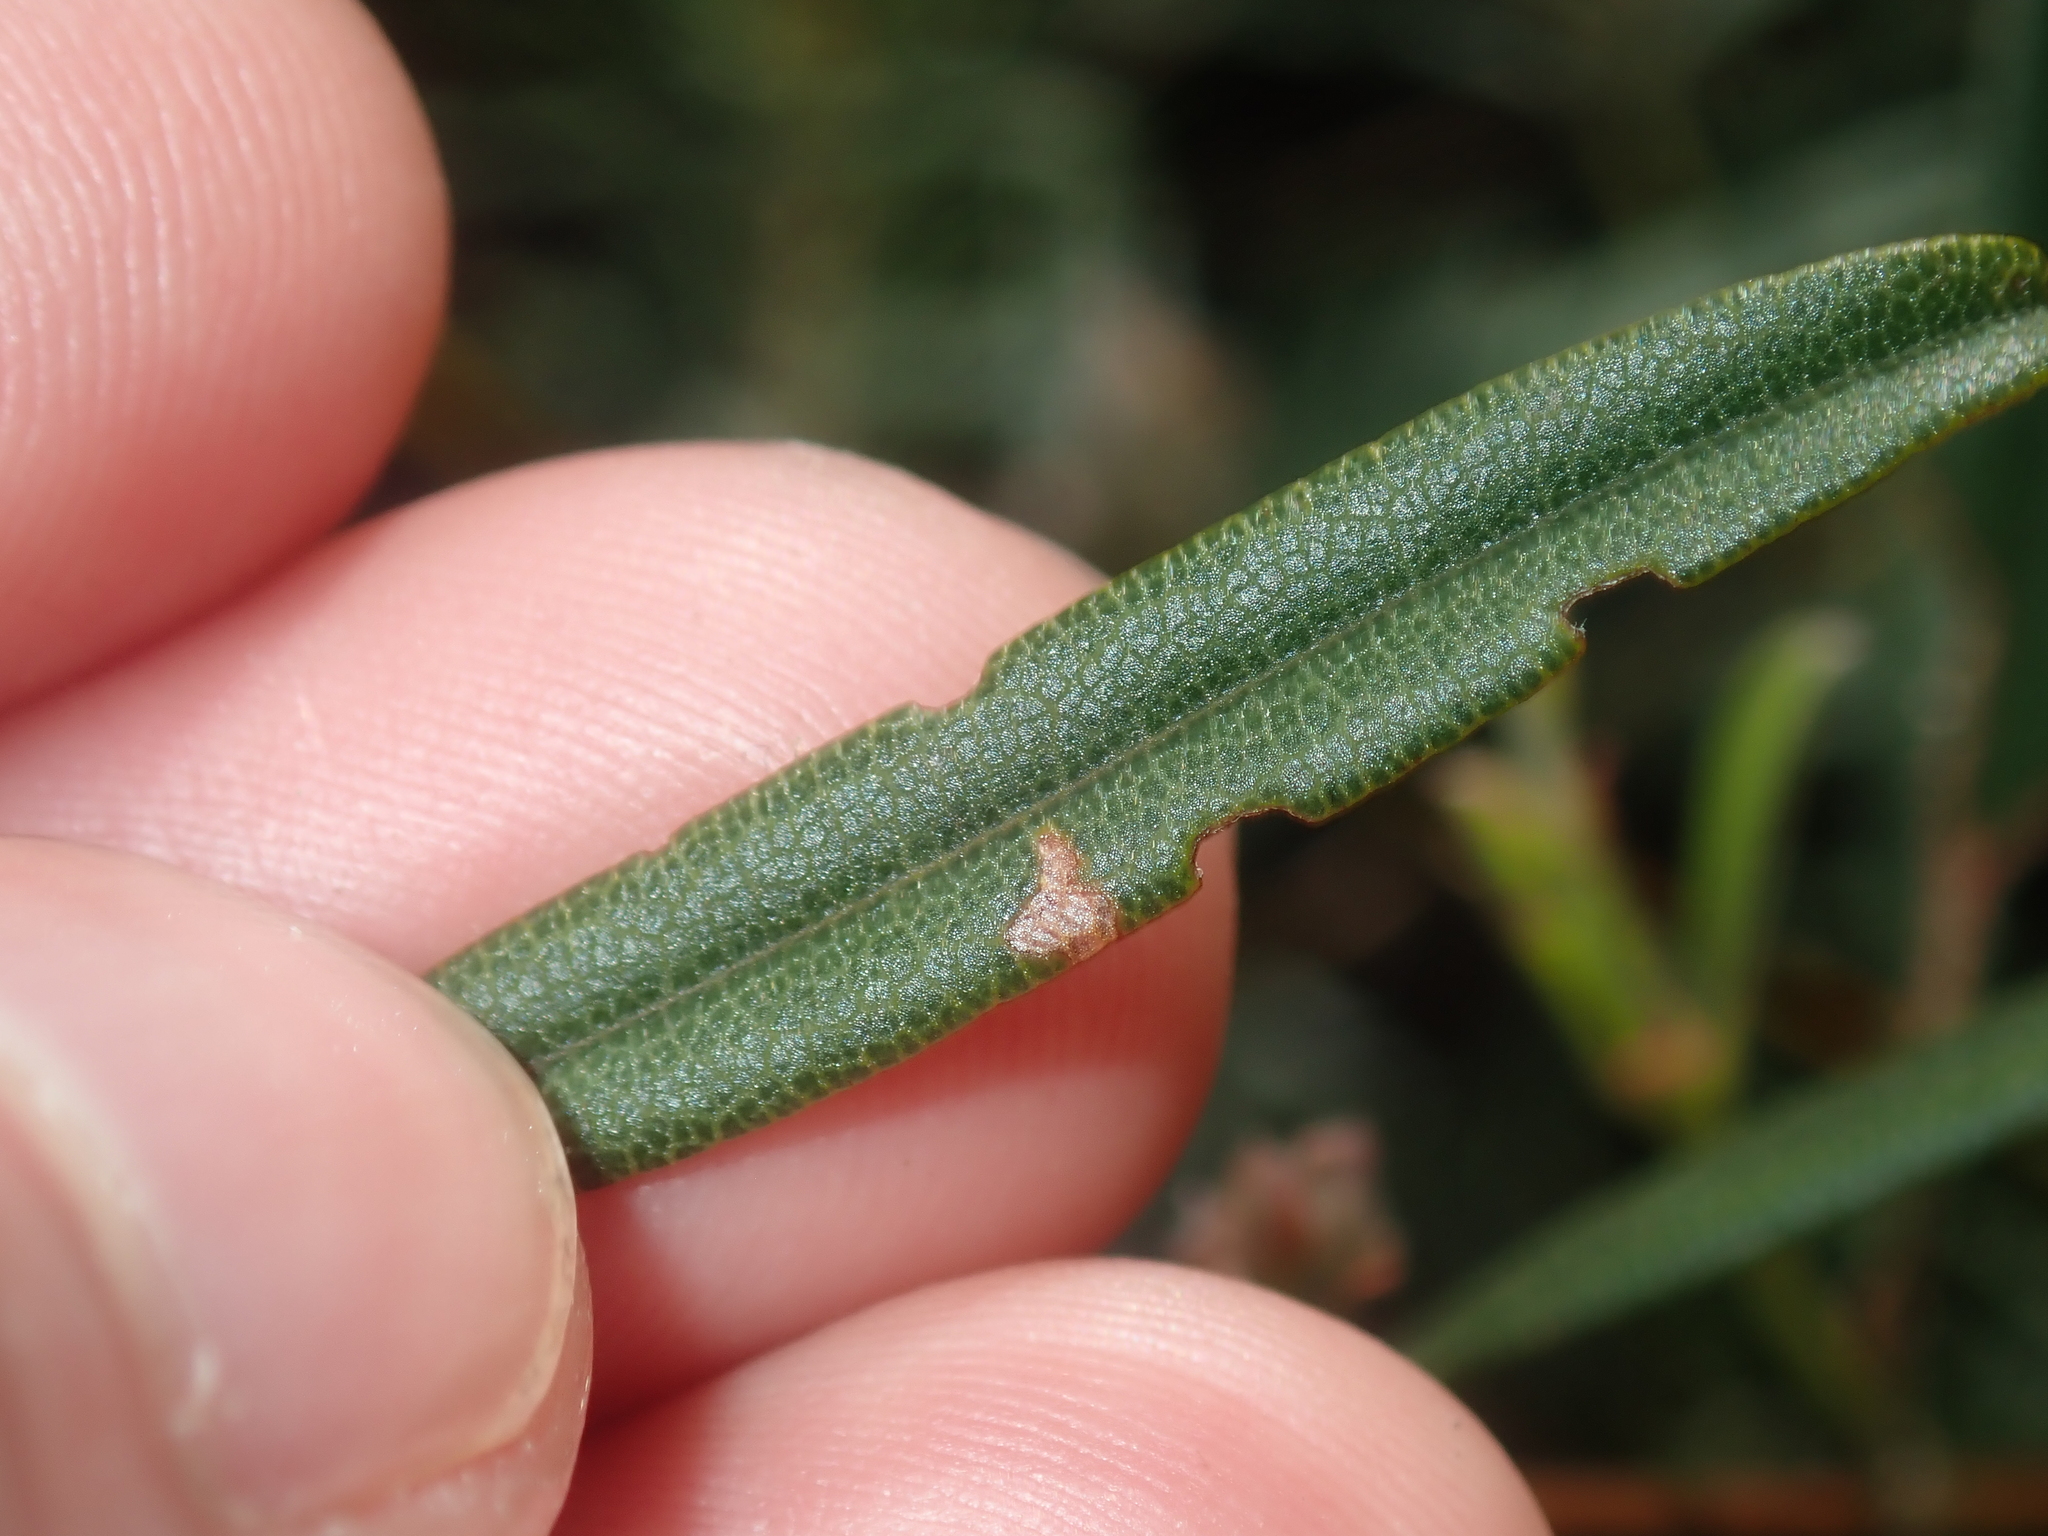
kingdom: Plantae
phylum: Tracheophyta
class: Magnoliopsida
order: Fabales
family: Fabaceae
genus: Gastrolobium
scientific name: Gastrolobium capitatum
